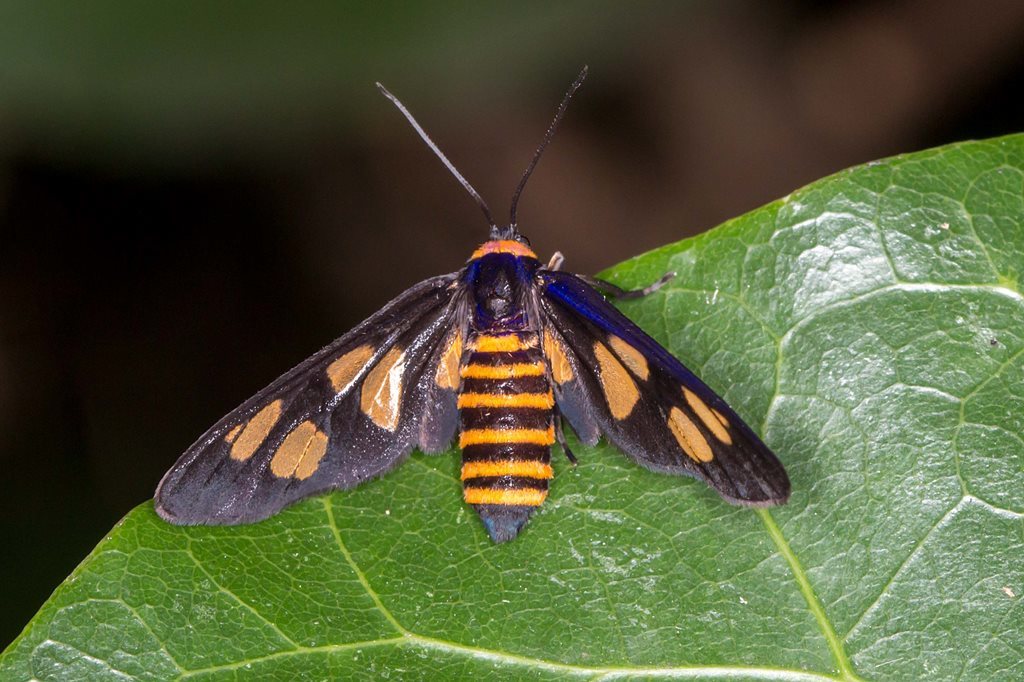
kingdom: Animalia
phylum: Arthropoda
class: Insecta
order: Lepidoptera
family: Erebidae
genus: Eressa
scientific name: Eressa angustipenna
